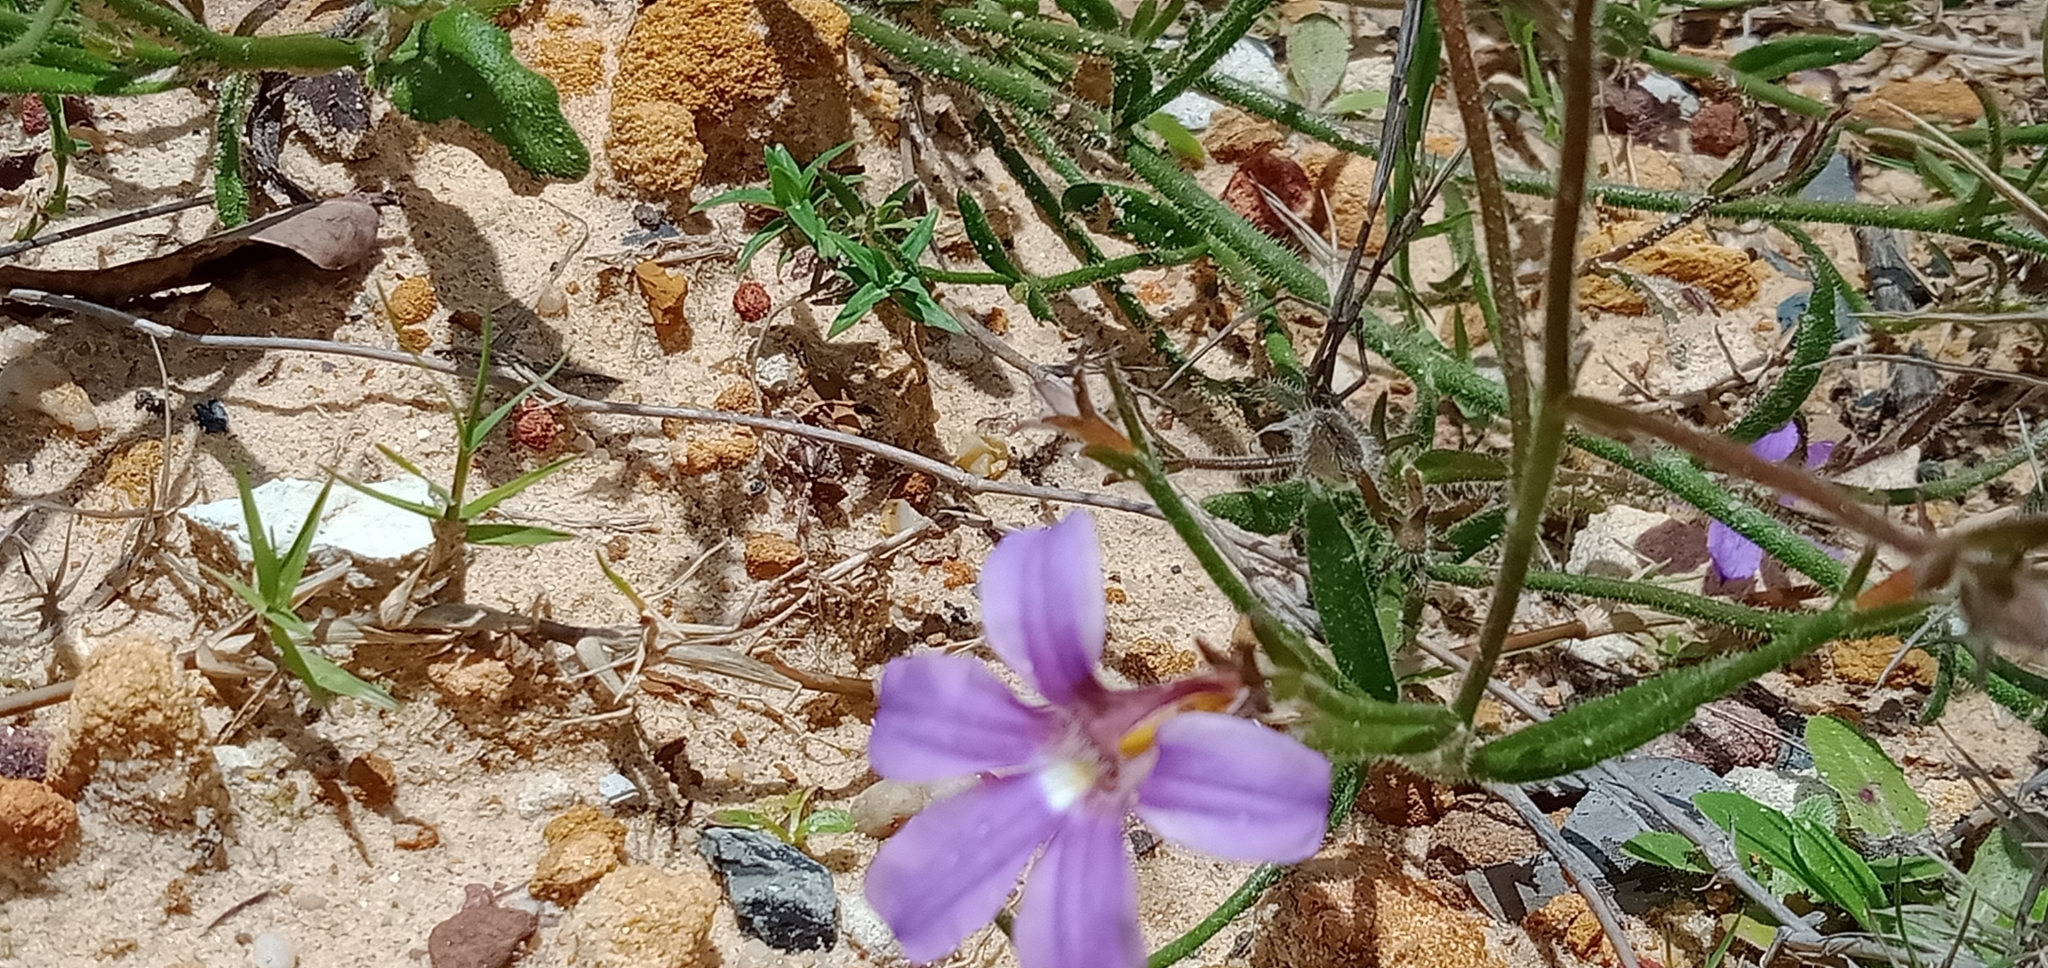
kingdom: Plantae
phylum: Tracheophyta
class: Magnoliopsida
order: Asterales
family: Goodeniaceae
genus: Scaevola
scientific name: Scaevola ramosissima
